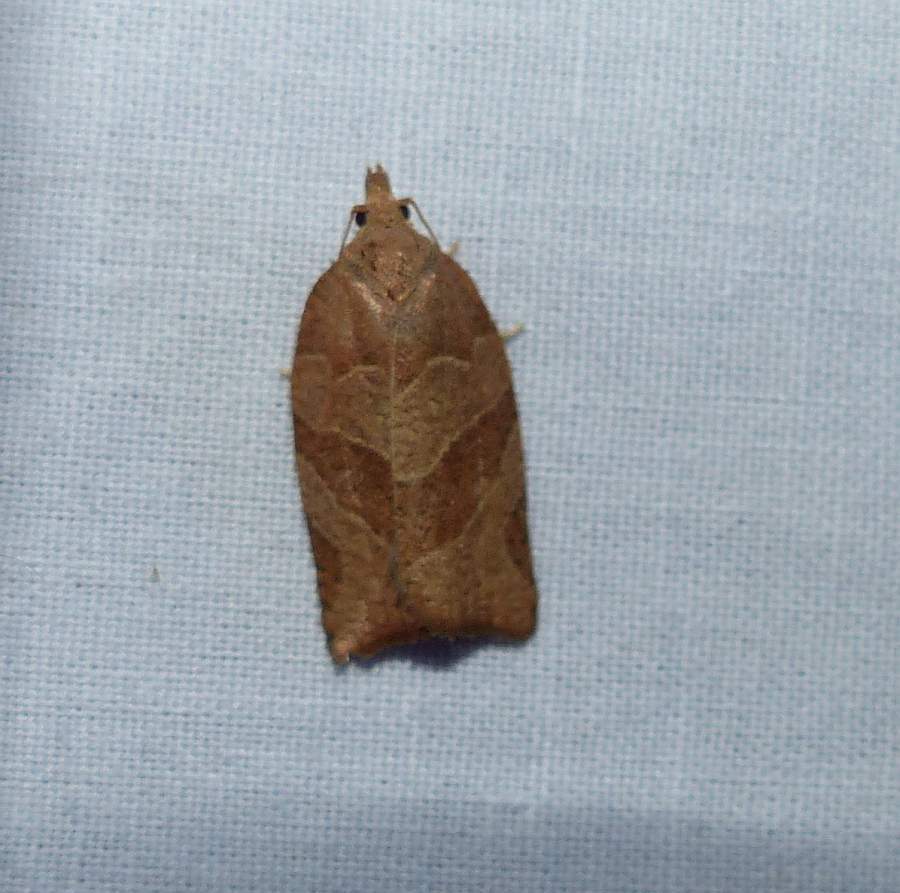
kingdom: Animalia
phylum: Arthropoda
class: Insecta
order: Lepidoptera
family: Tortricidae
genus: Pandemis
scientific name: Pandemis limitata
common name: Three-lined leafroller moth
